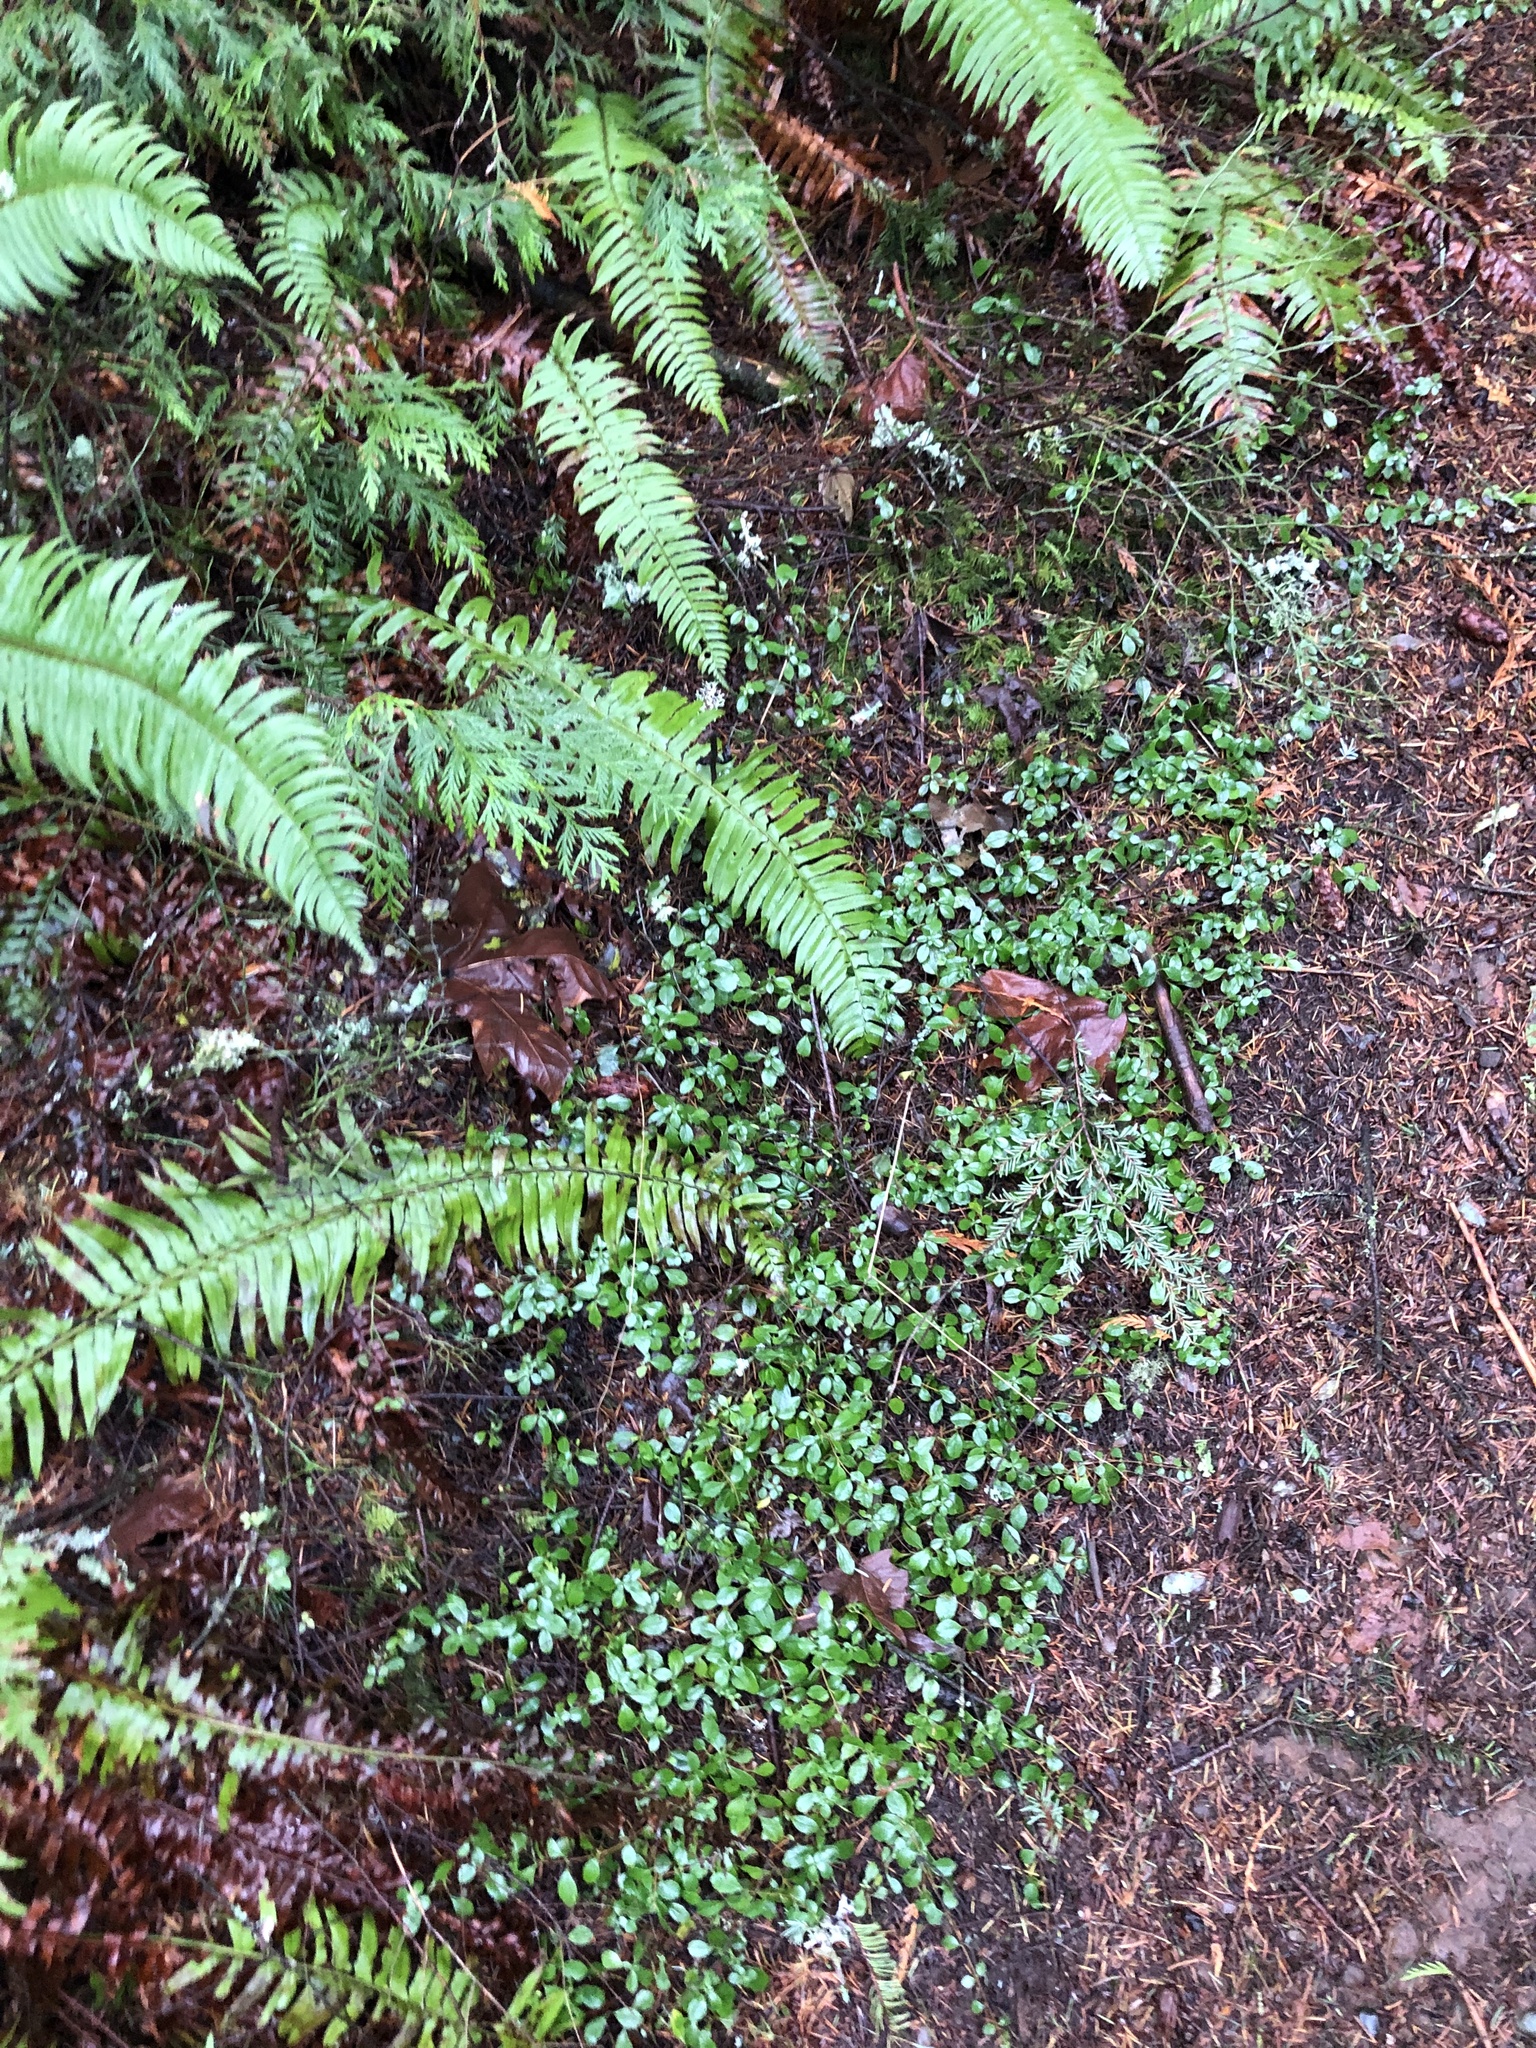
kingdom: Plantae
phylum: Tracheophyta
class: Magnoliopsida
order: Dipsacales
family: Caprifoliaceae
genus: Linnaea
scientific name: Linnaea borealis
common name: Twinflower
